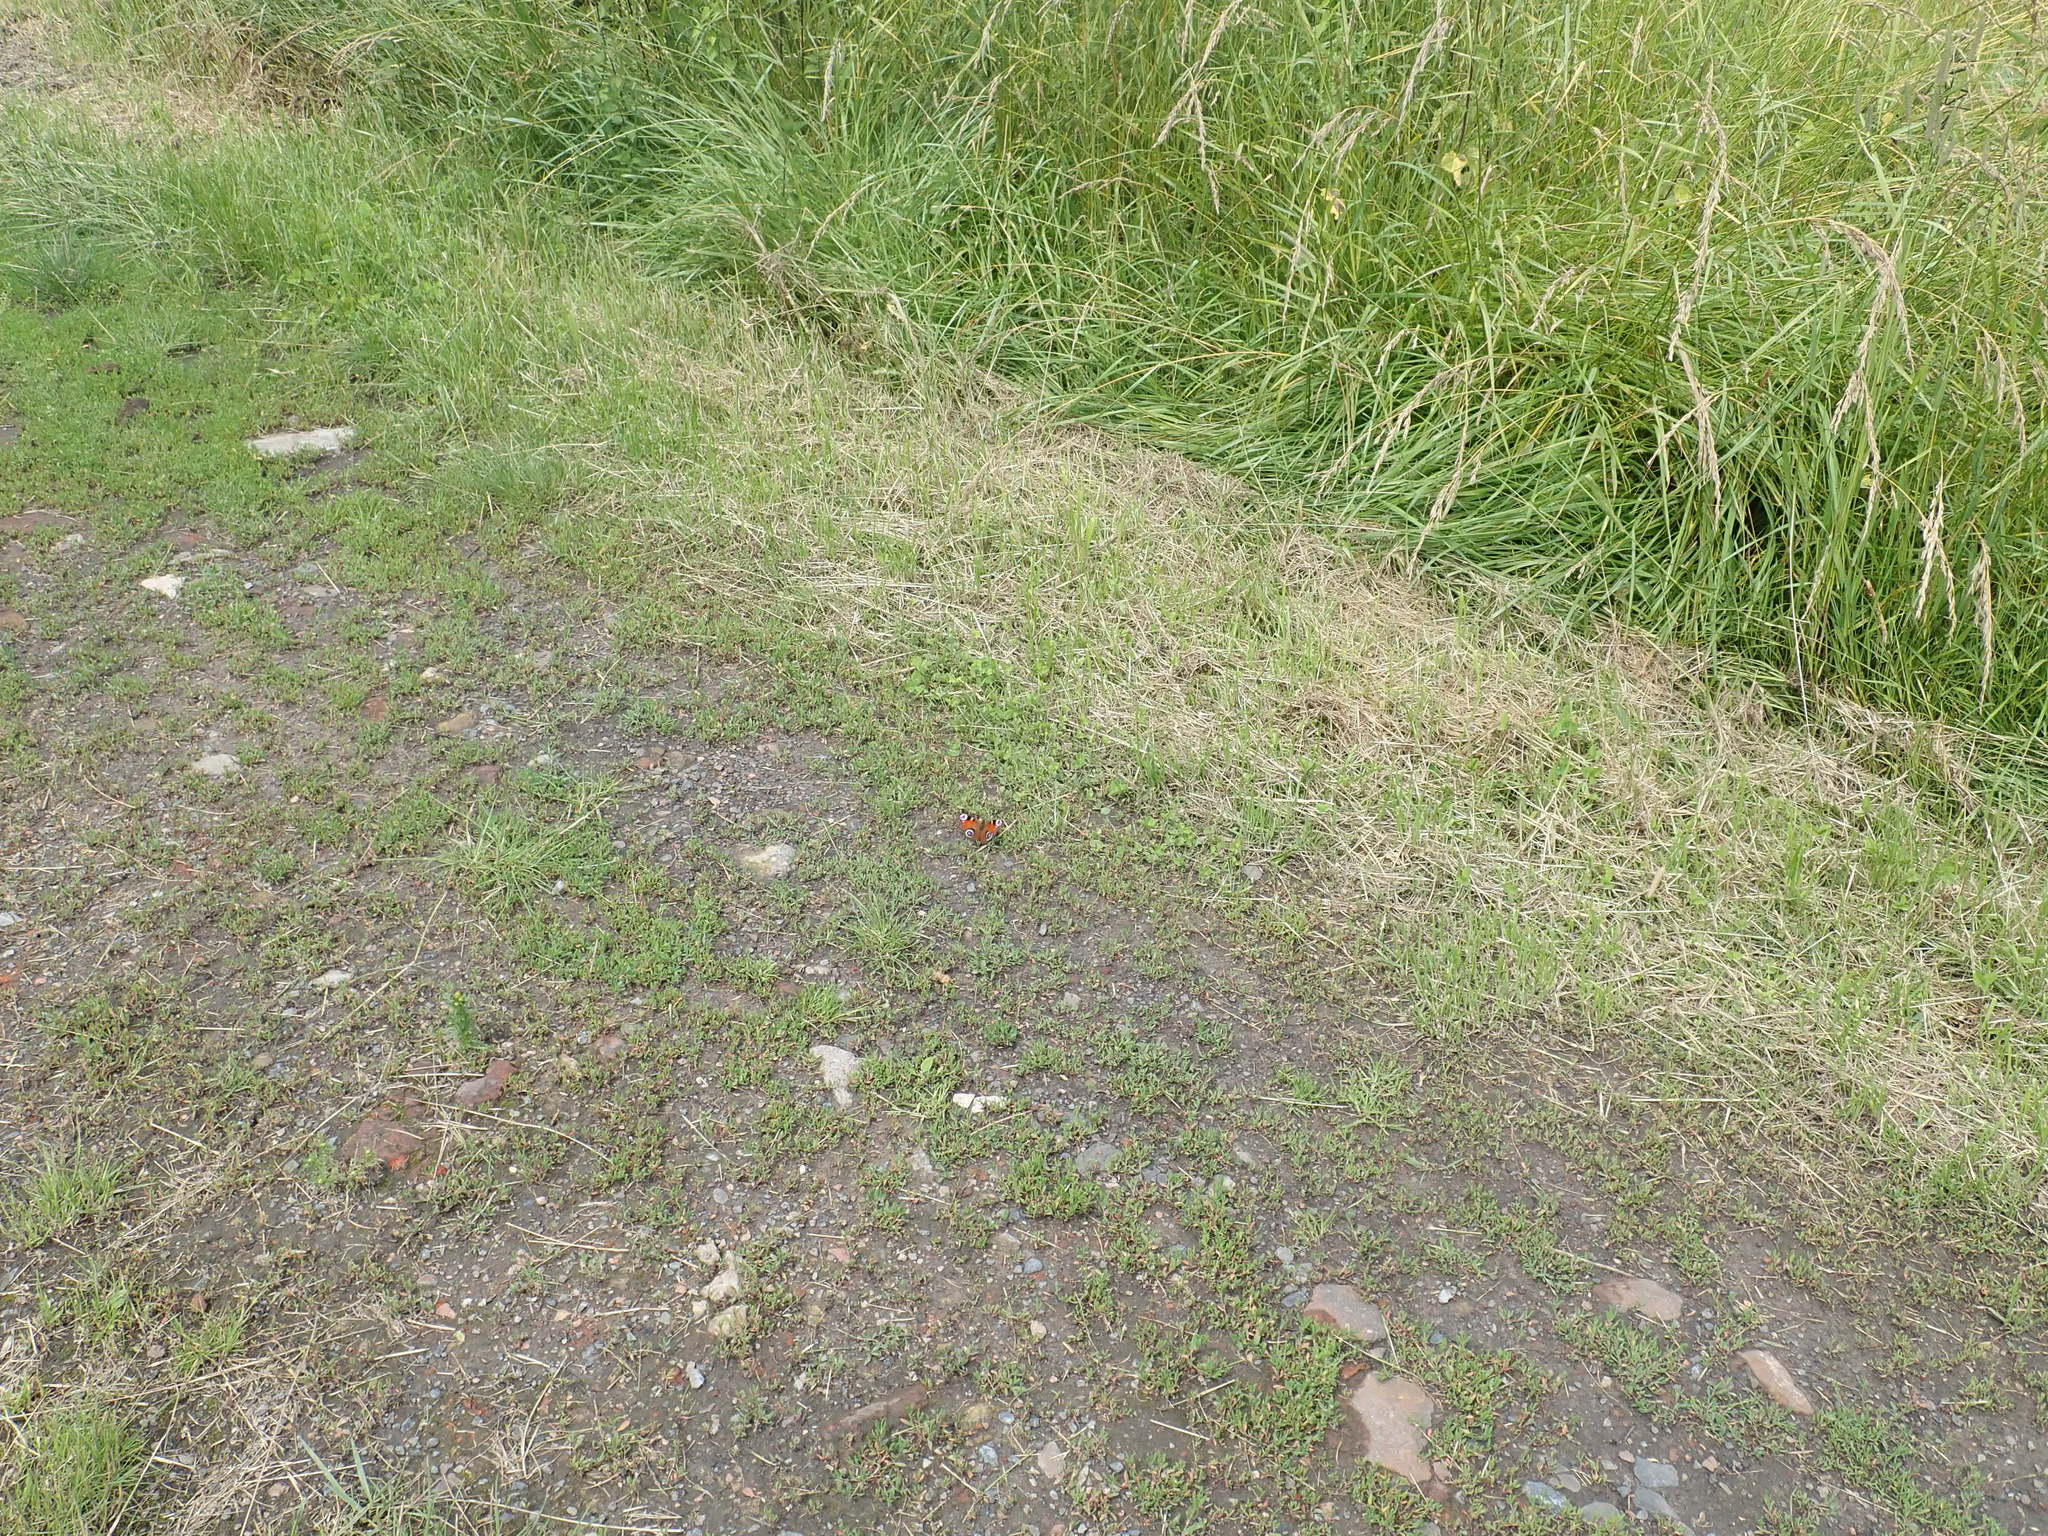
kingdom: Animalia
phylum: Arthropoda
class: Insecta
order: Lepidoptera
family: Nymphalidae
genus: Aglais
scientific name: Aglais io
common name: Peacock
